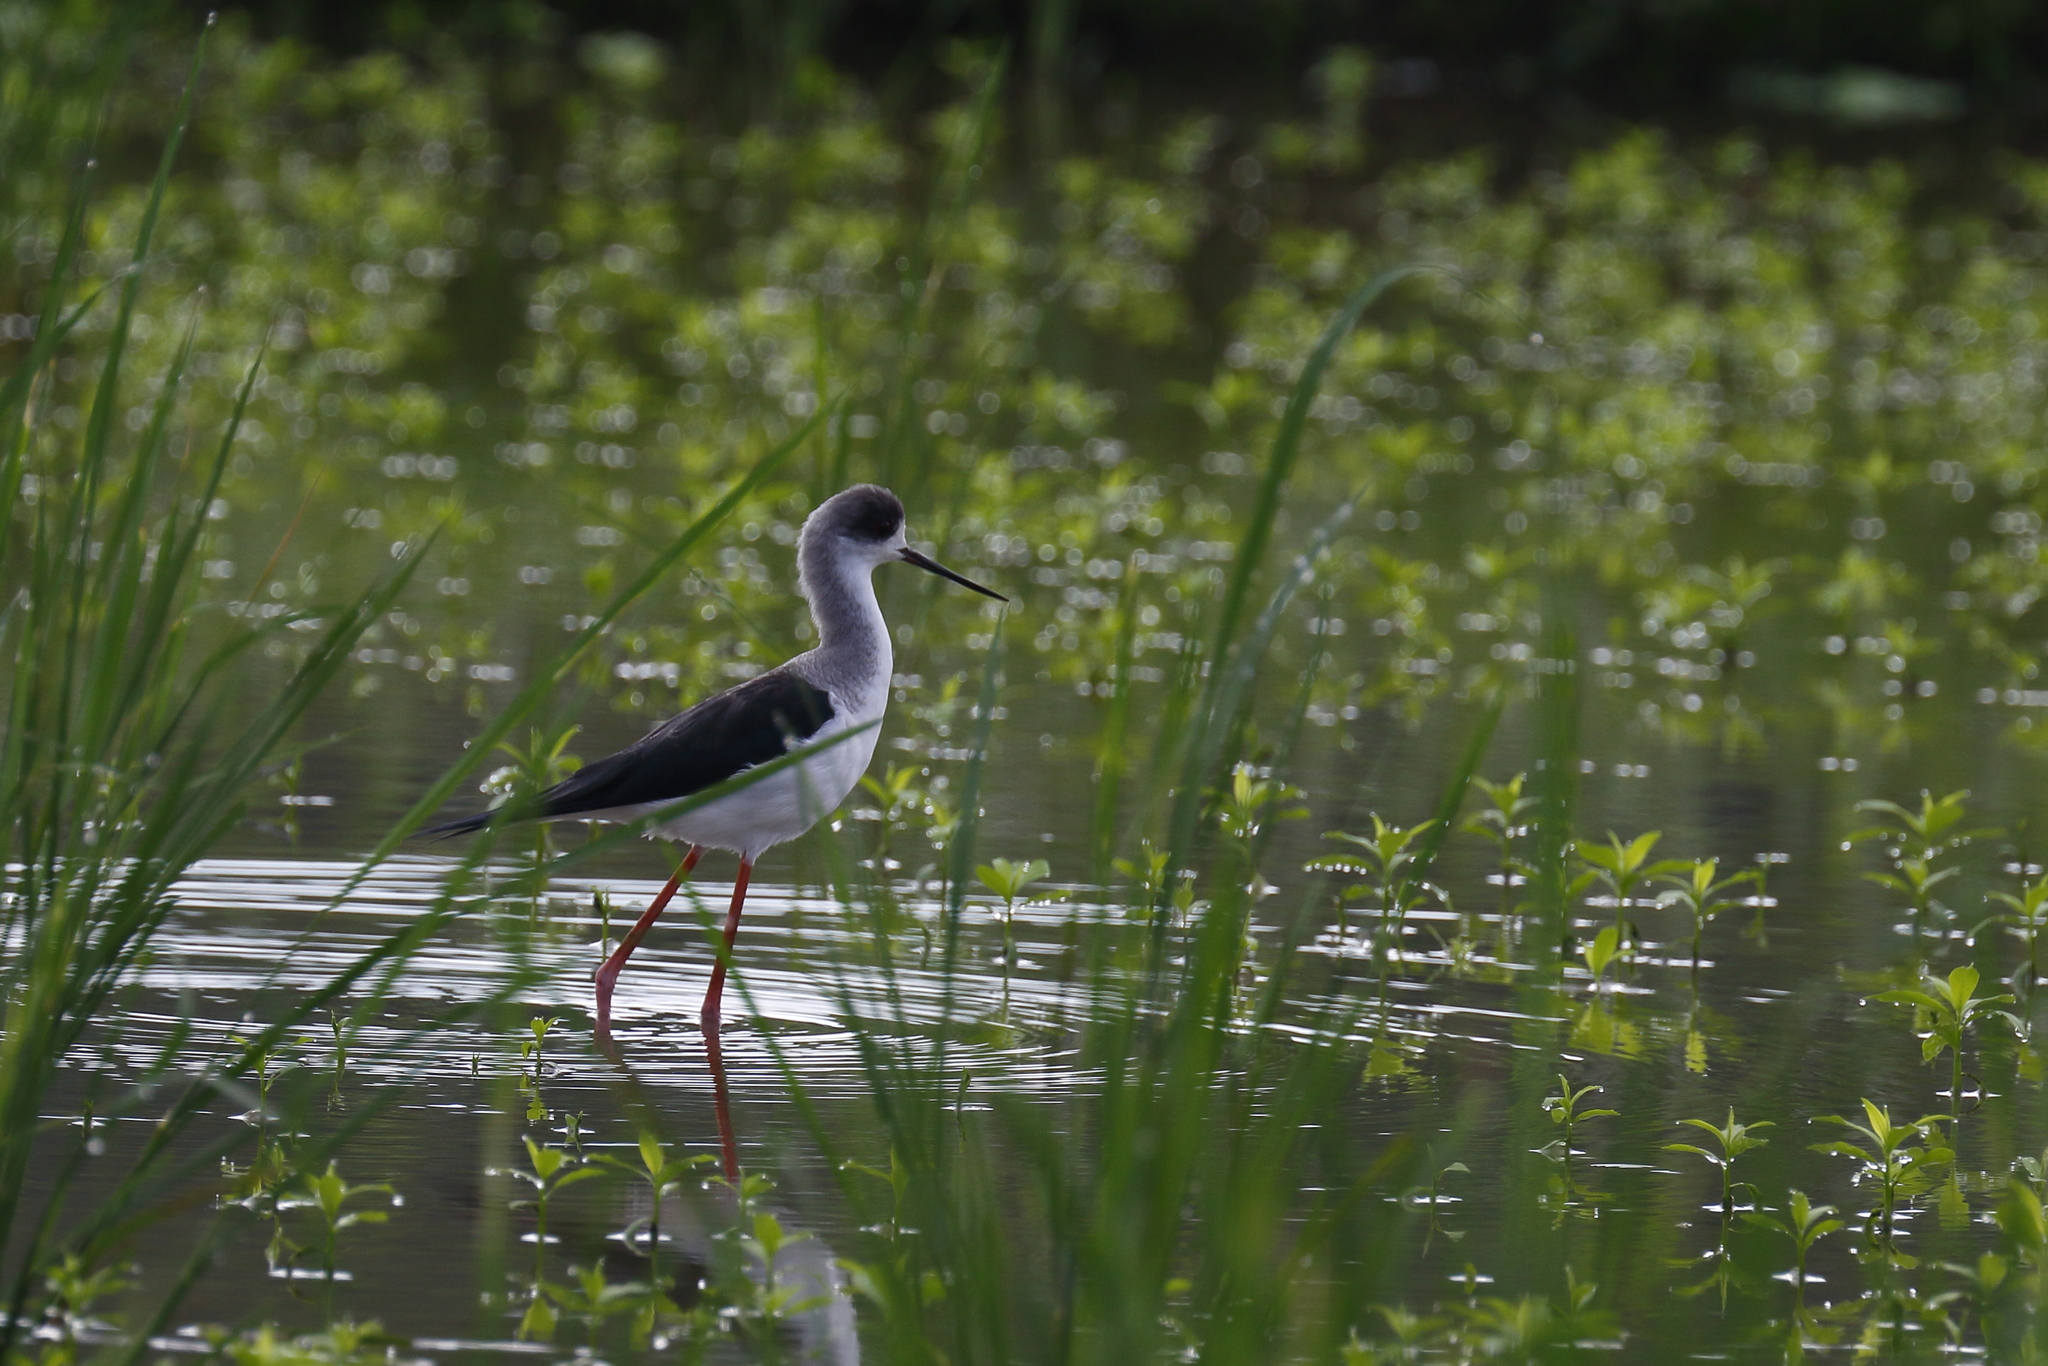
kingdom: Animalia
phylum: Chordata
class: Aves
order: Charadriiformes
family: Recurvirostridae
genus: Himantopus
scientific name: Himantopus himantopus
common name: Black-winged stilt
